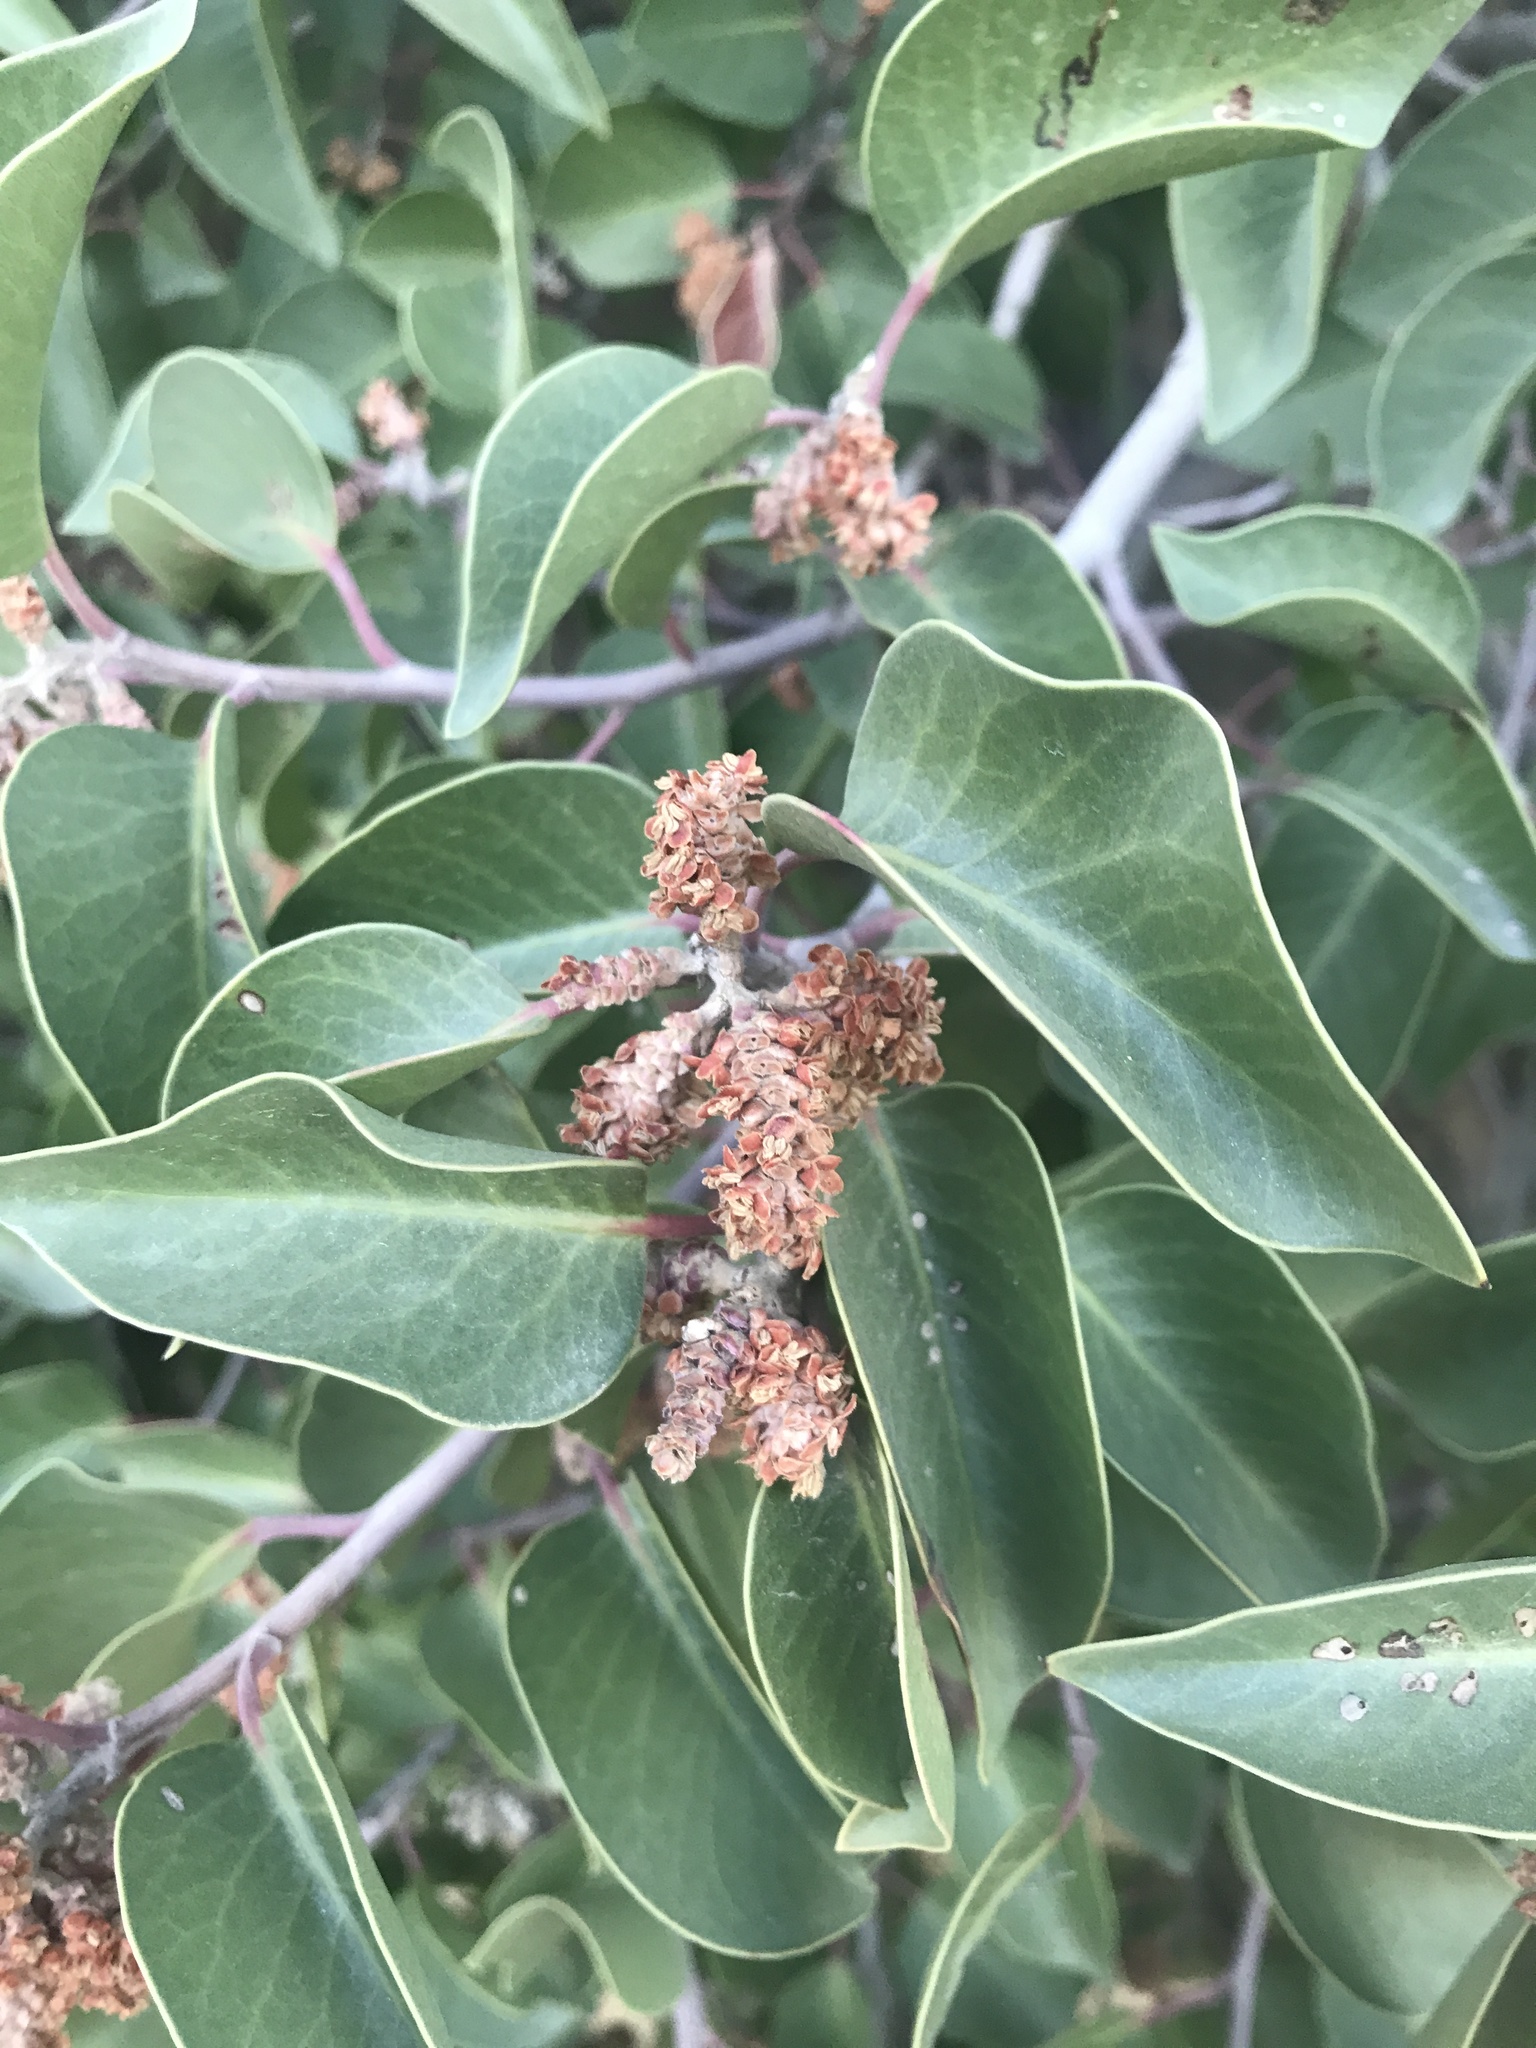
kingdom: Plantae
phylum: Tracheophyta
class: Magnoliopsida
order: Sapindales
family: Anacardiaceae
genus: Rhus
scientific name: Rhus ovata
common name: Sugar sumac
